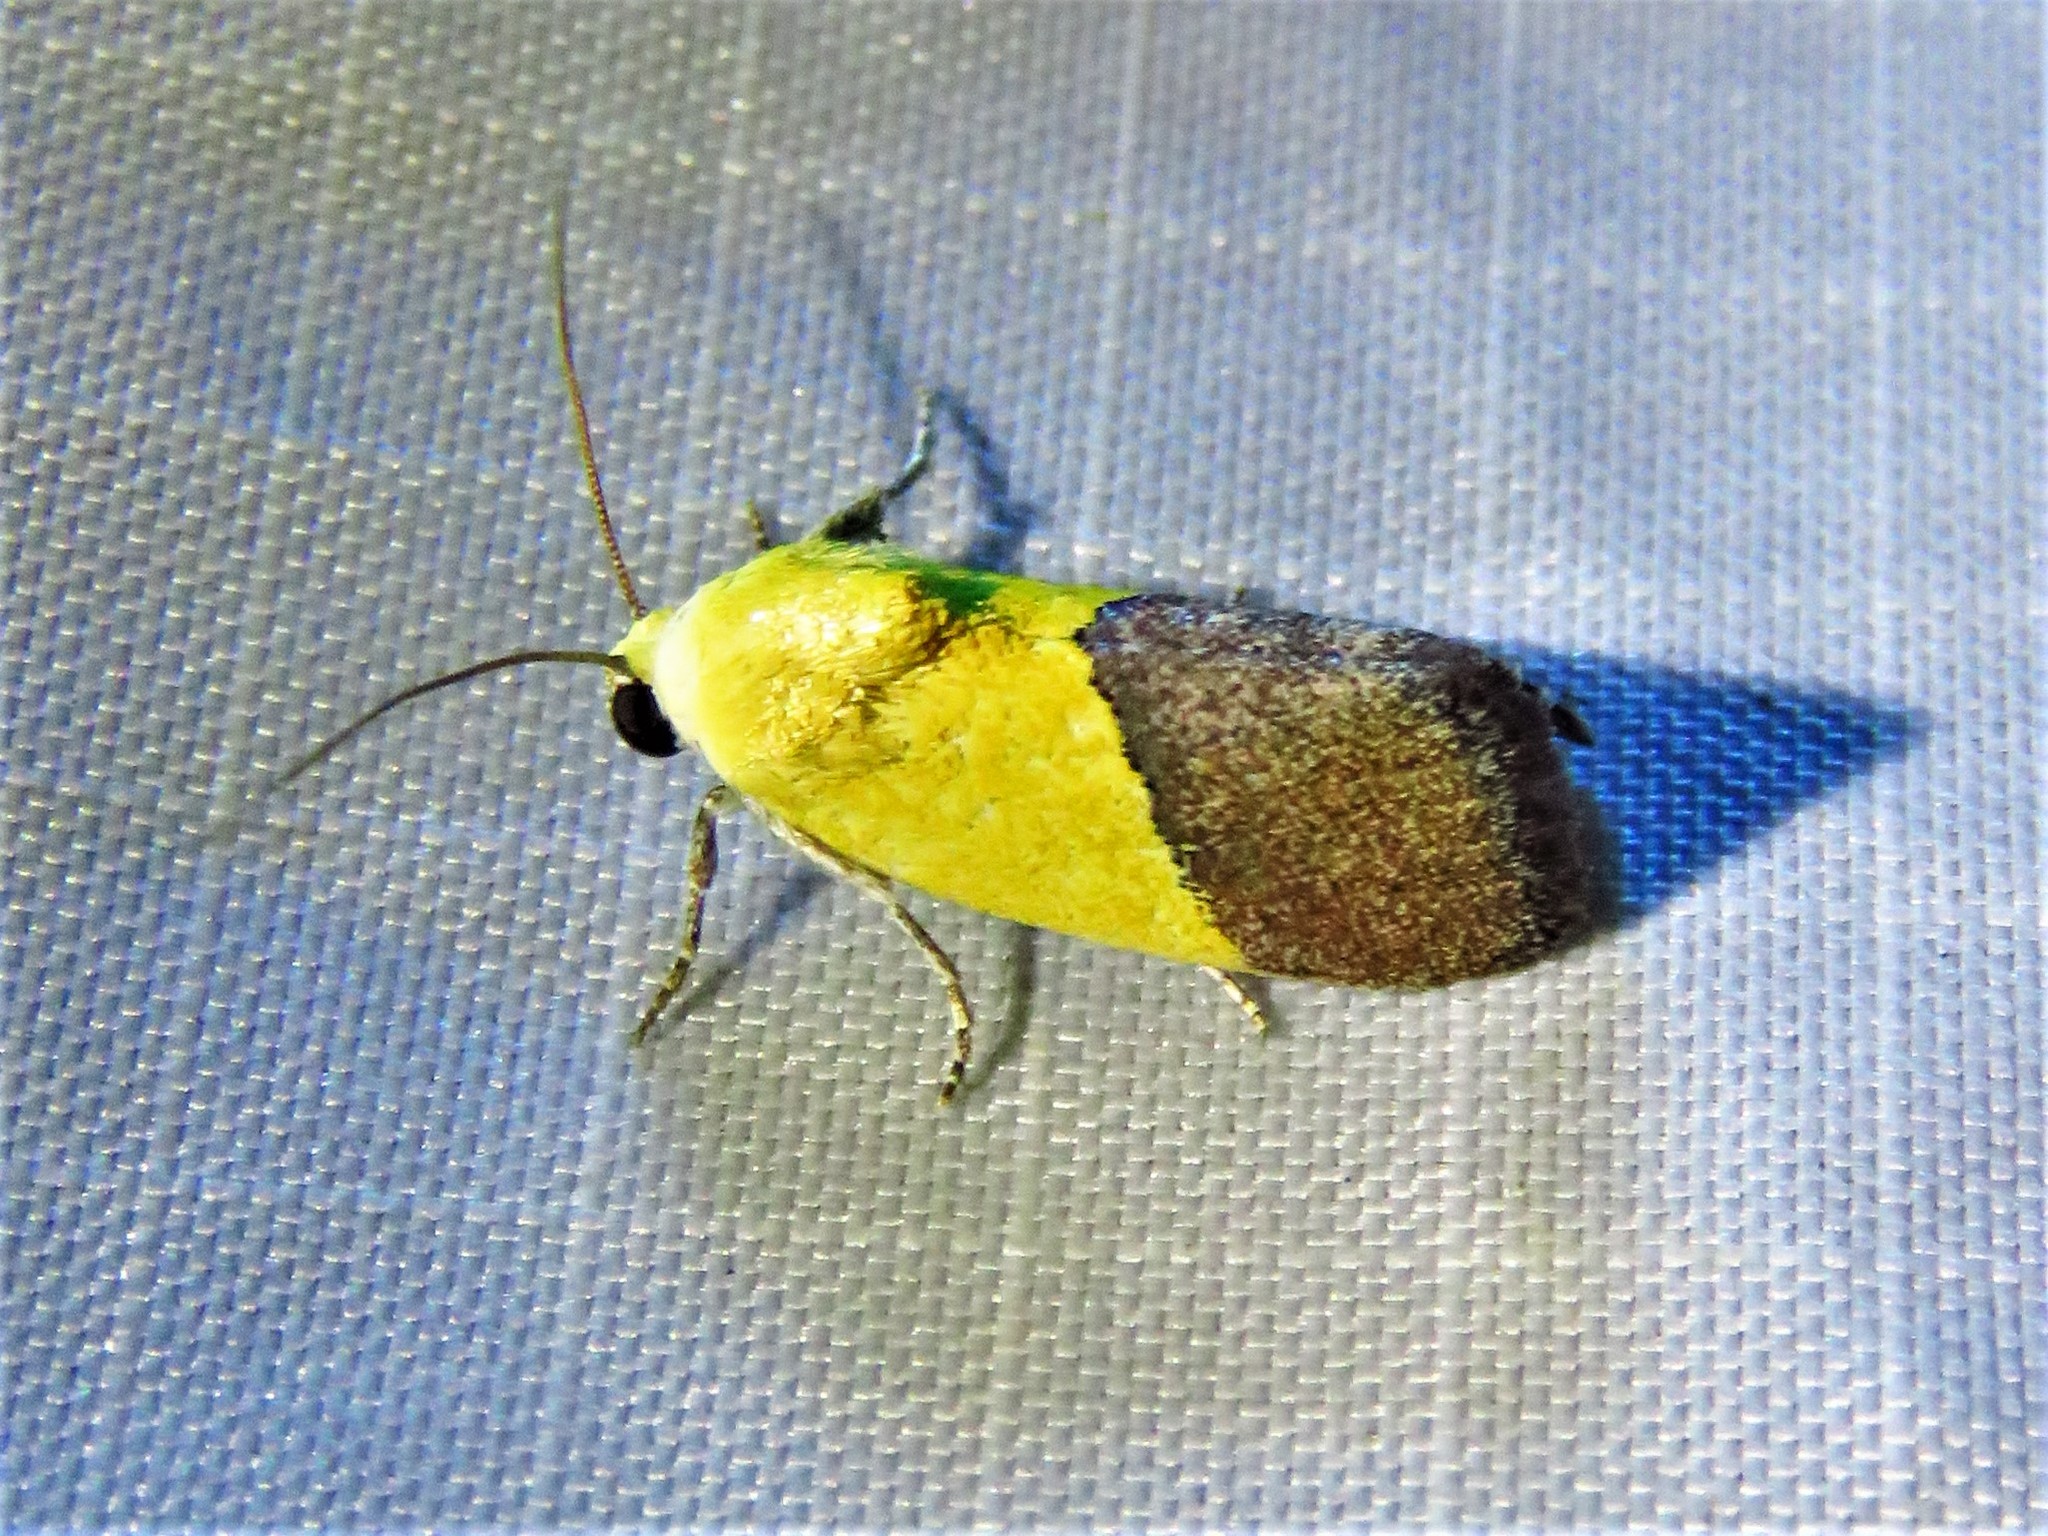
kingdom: Animalia
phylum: Arthropoda
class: Insecta
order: Lepidoptera
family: Noctuidae
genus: Acontia
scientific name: Acontia semiflava
